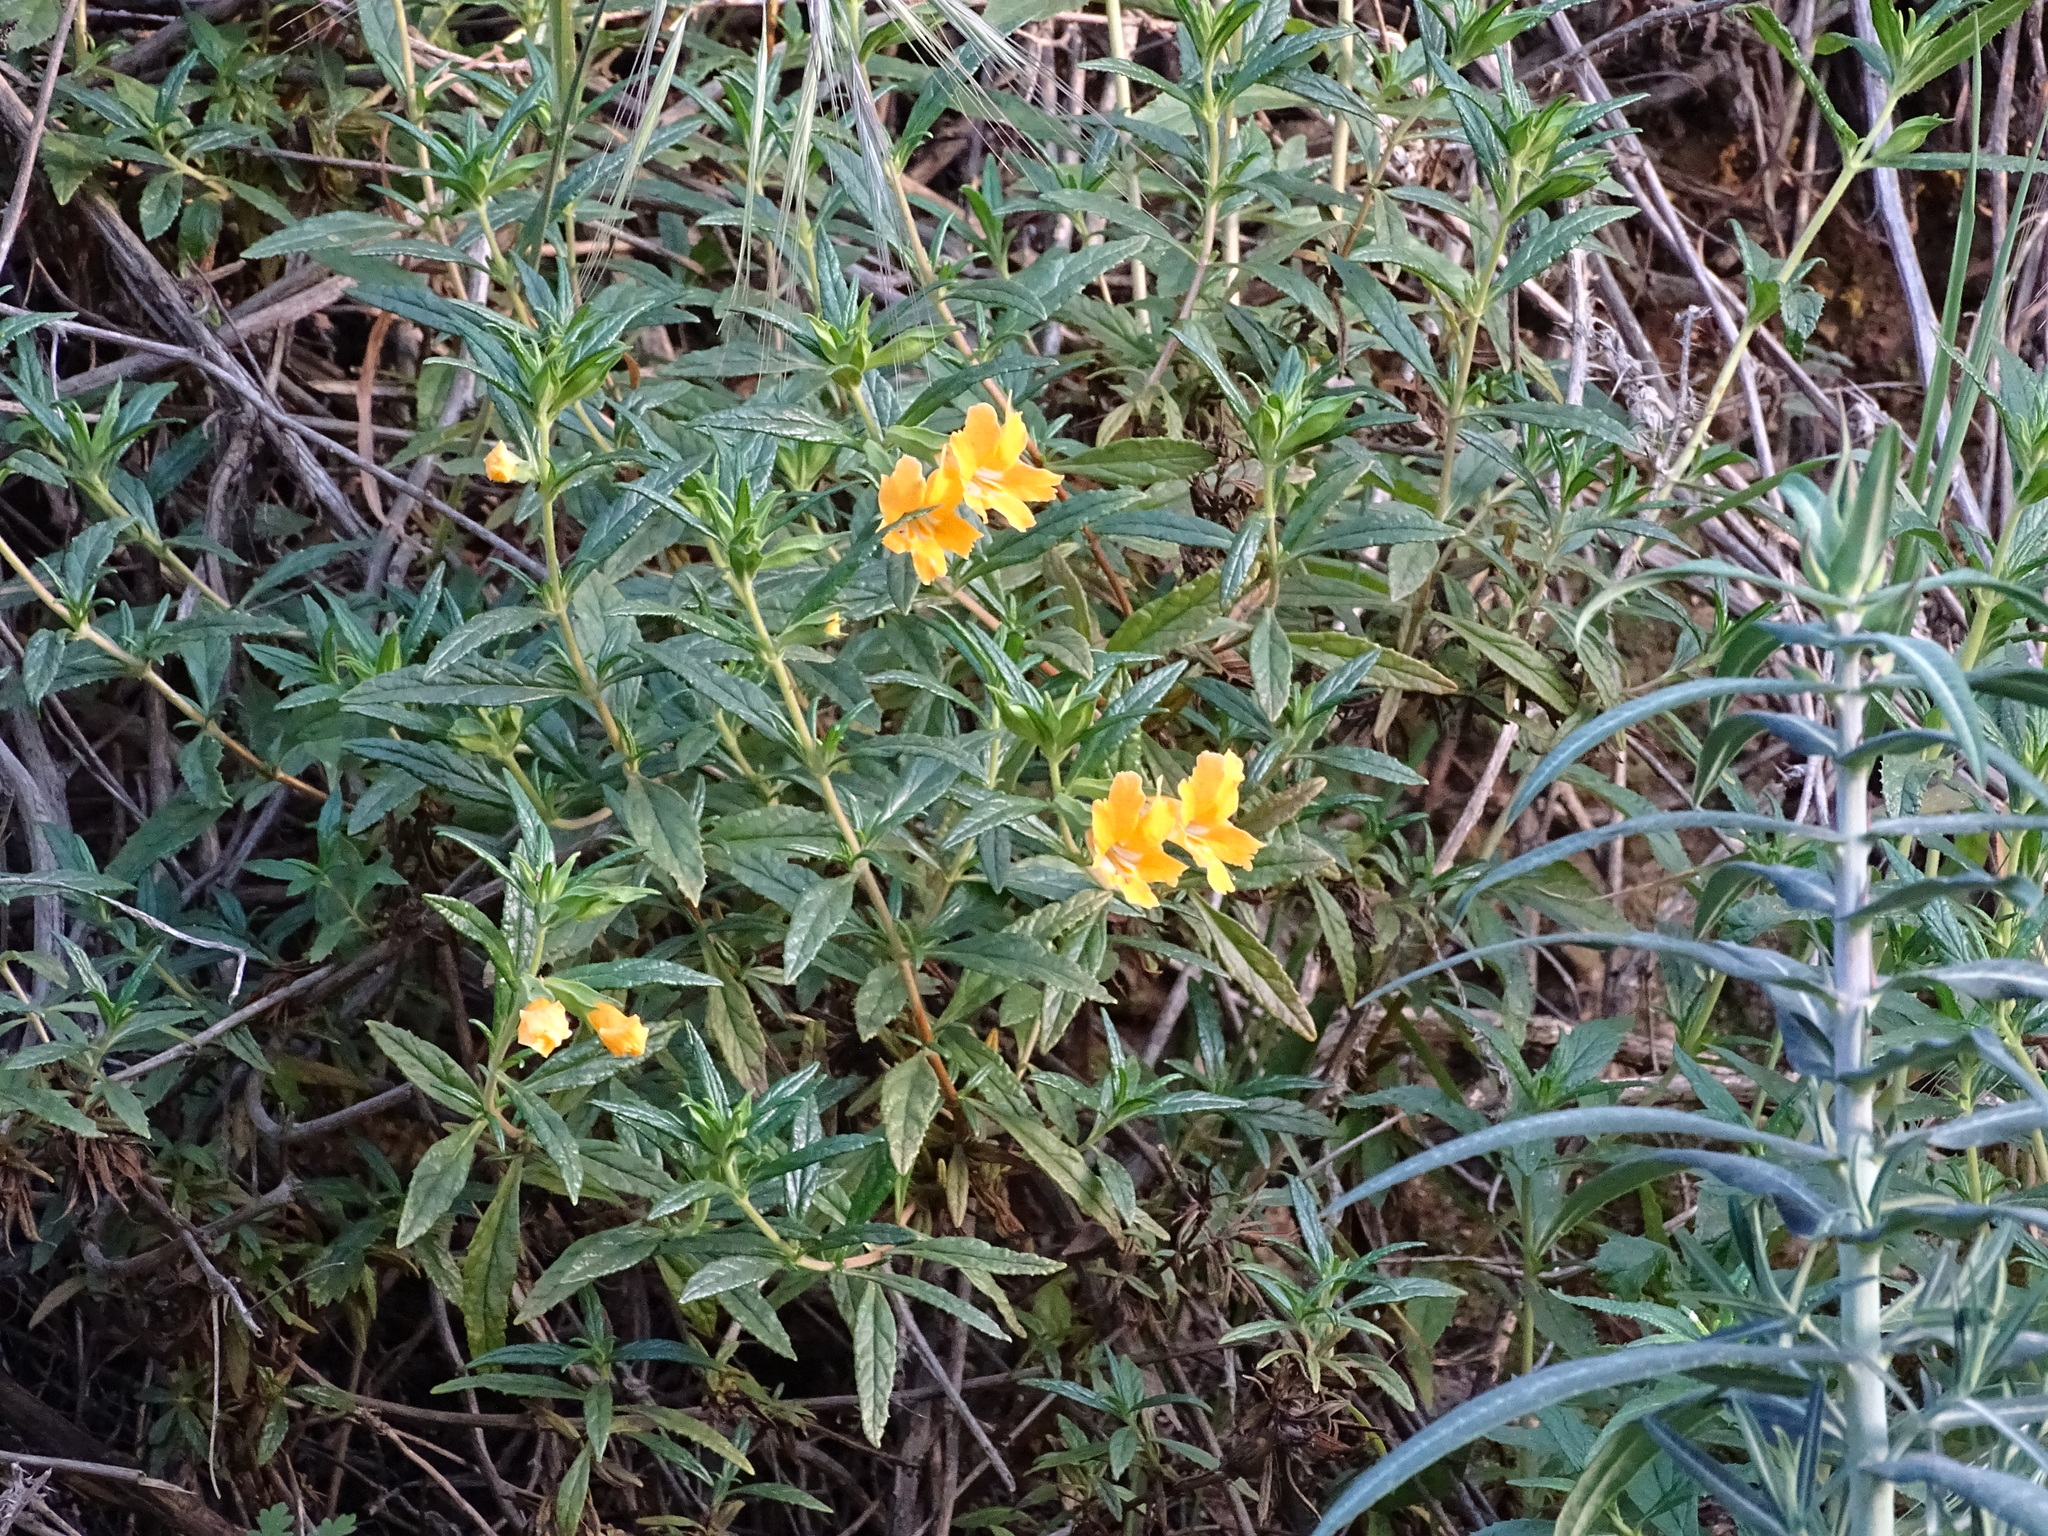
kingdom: Plantae
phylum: Tracheophyta
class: Magnoliopsida
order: Lamiales
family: Phrymaceae
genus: Diplacus
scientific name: Diplacus longiflorus
